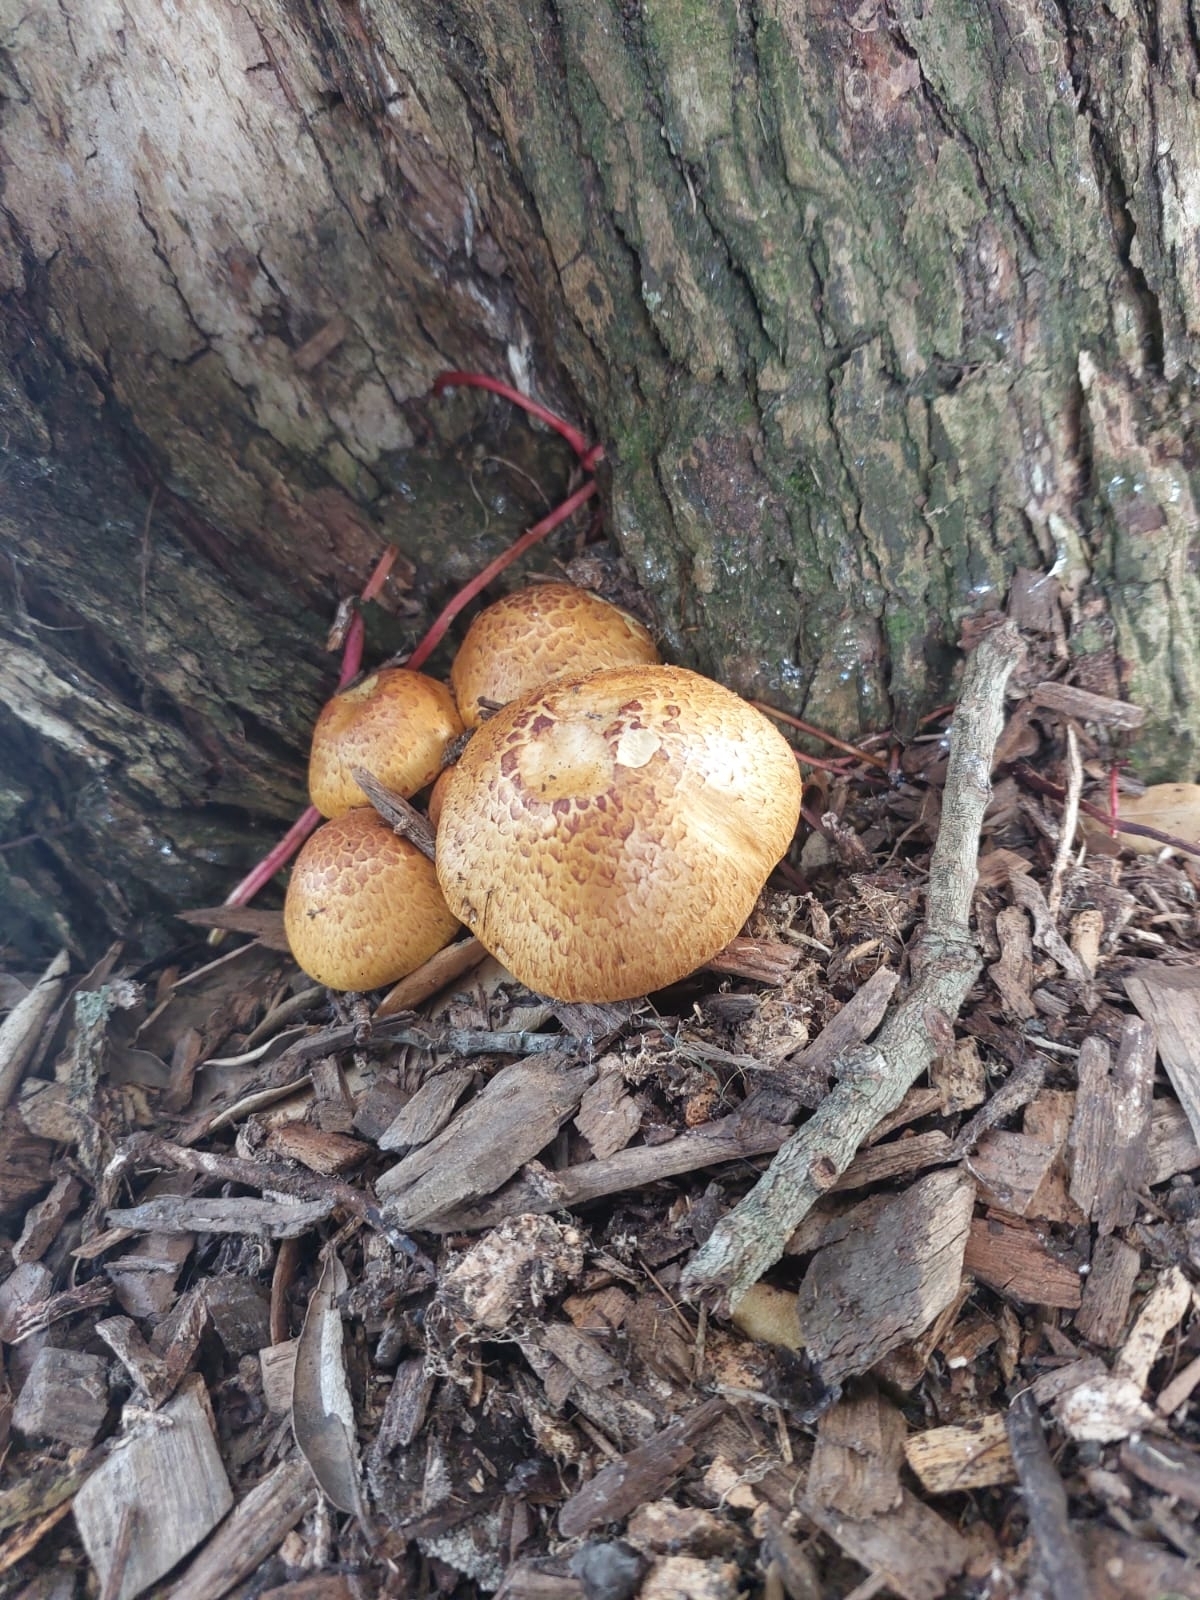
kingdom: Fungi
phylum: Basidiomycota
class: Agaricomycetes
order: Agaricales
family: Hymenogastraceae
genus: Gymnopilus
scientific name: Gymnopilus junonius
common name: Spectacular rustgill
